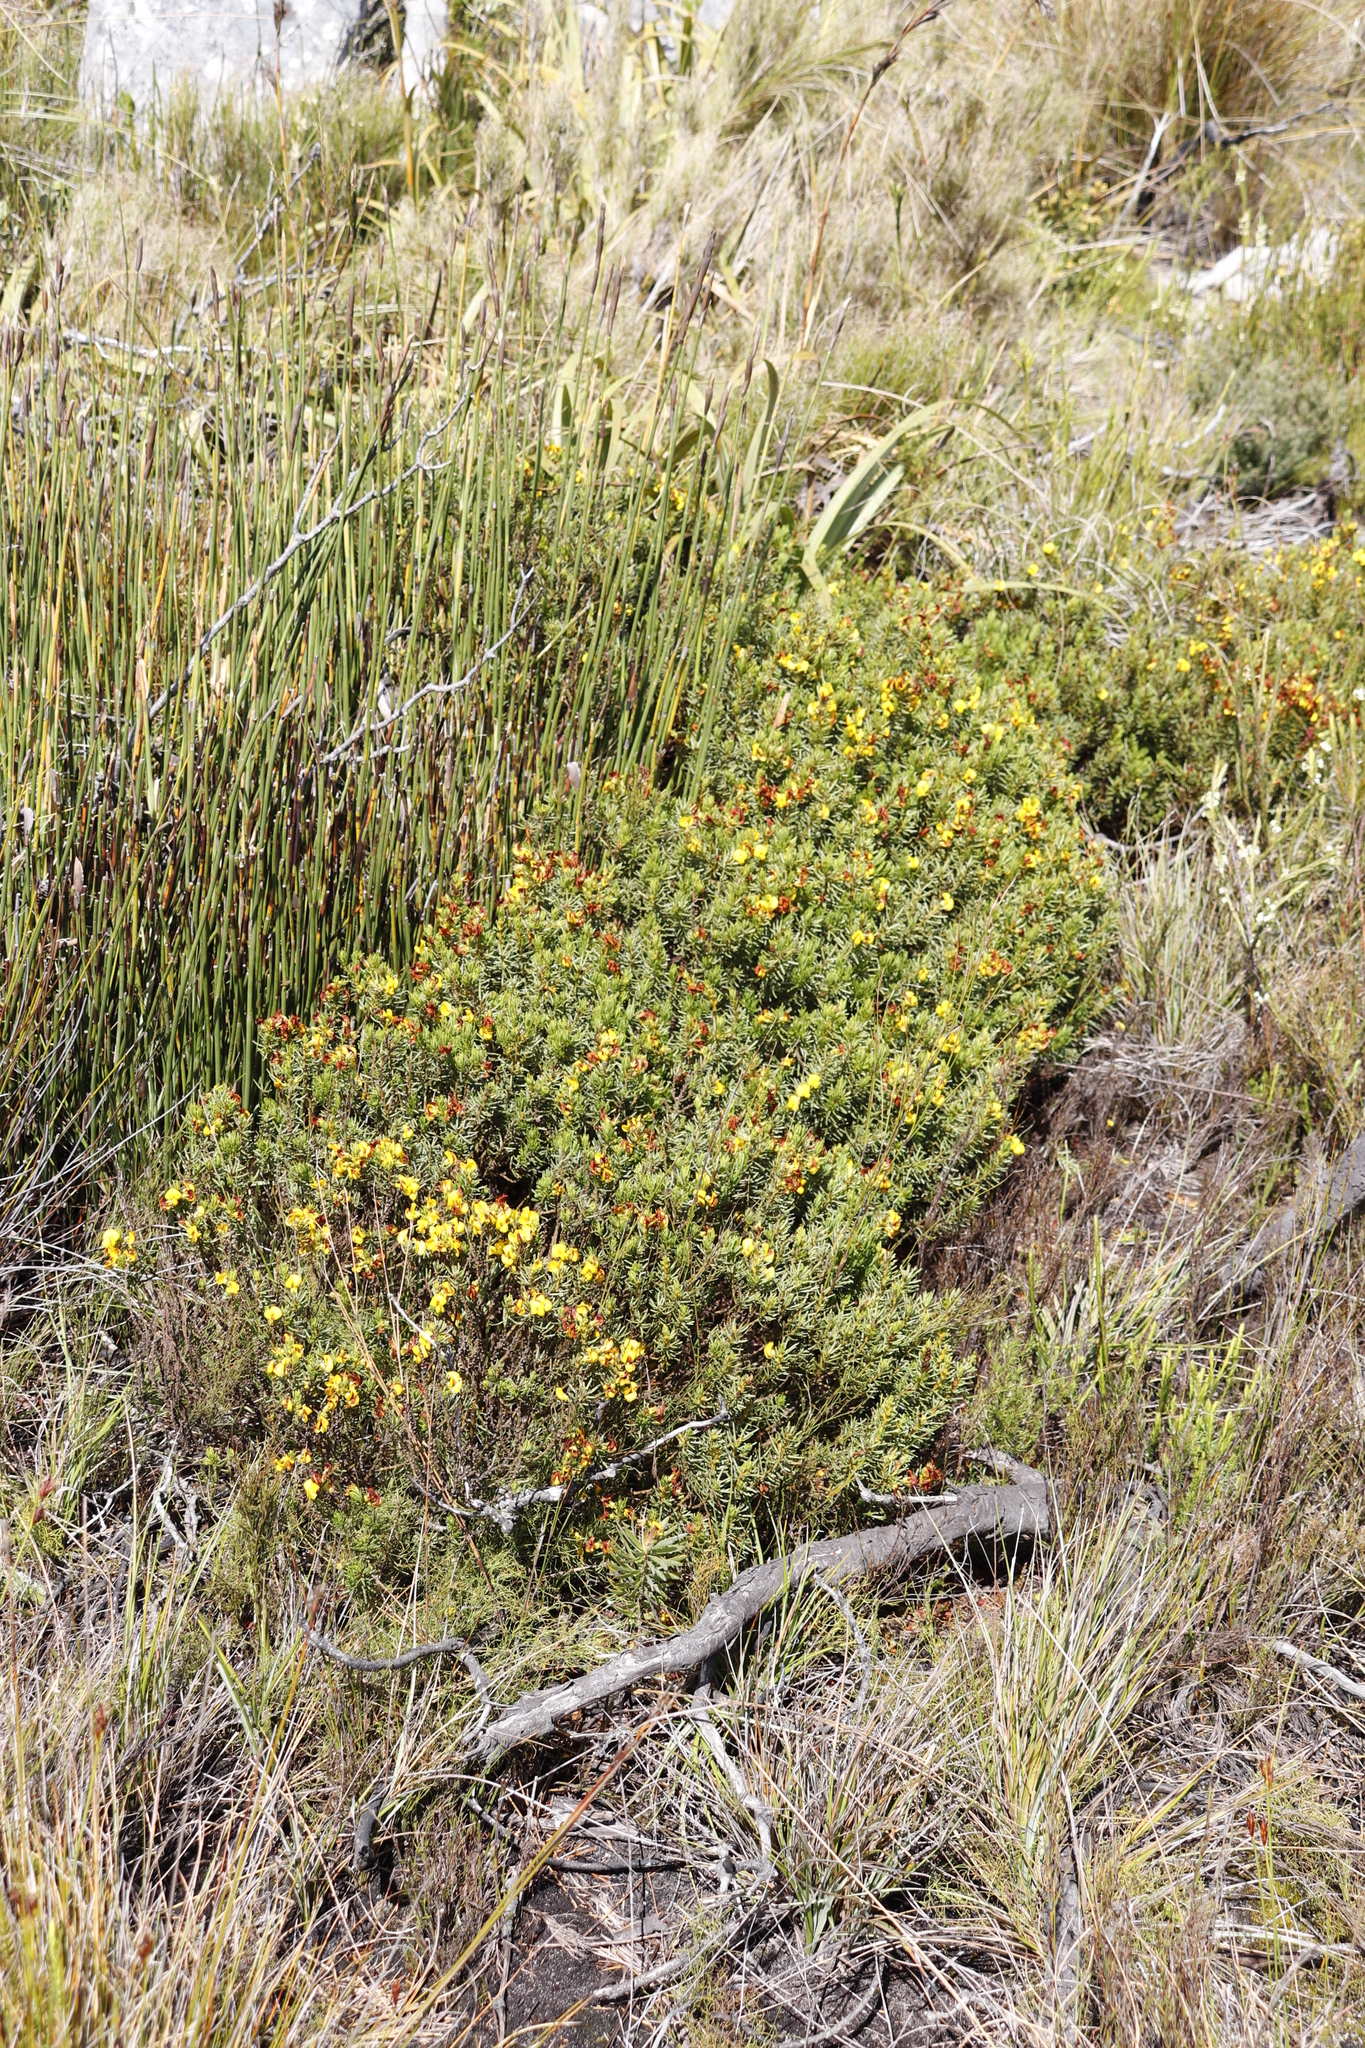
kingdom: Plantae
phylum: Tracheophyta
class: Magnoliopsida
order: Fabales
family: Fabaceae
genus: Cyclopia
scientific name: Cyclopia genistoides
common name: Honeybush tea
